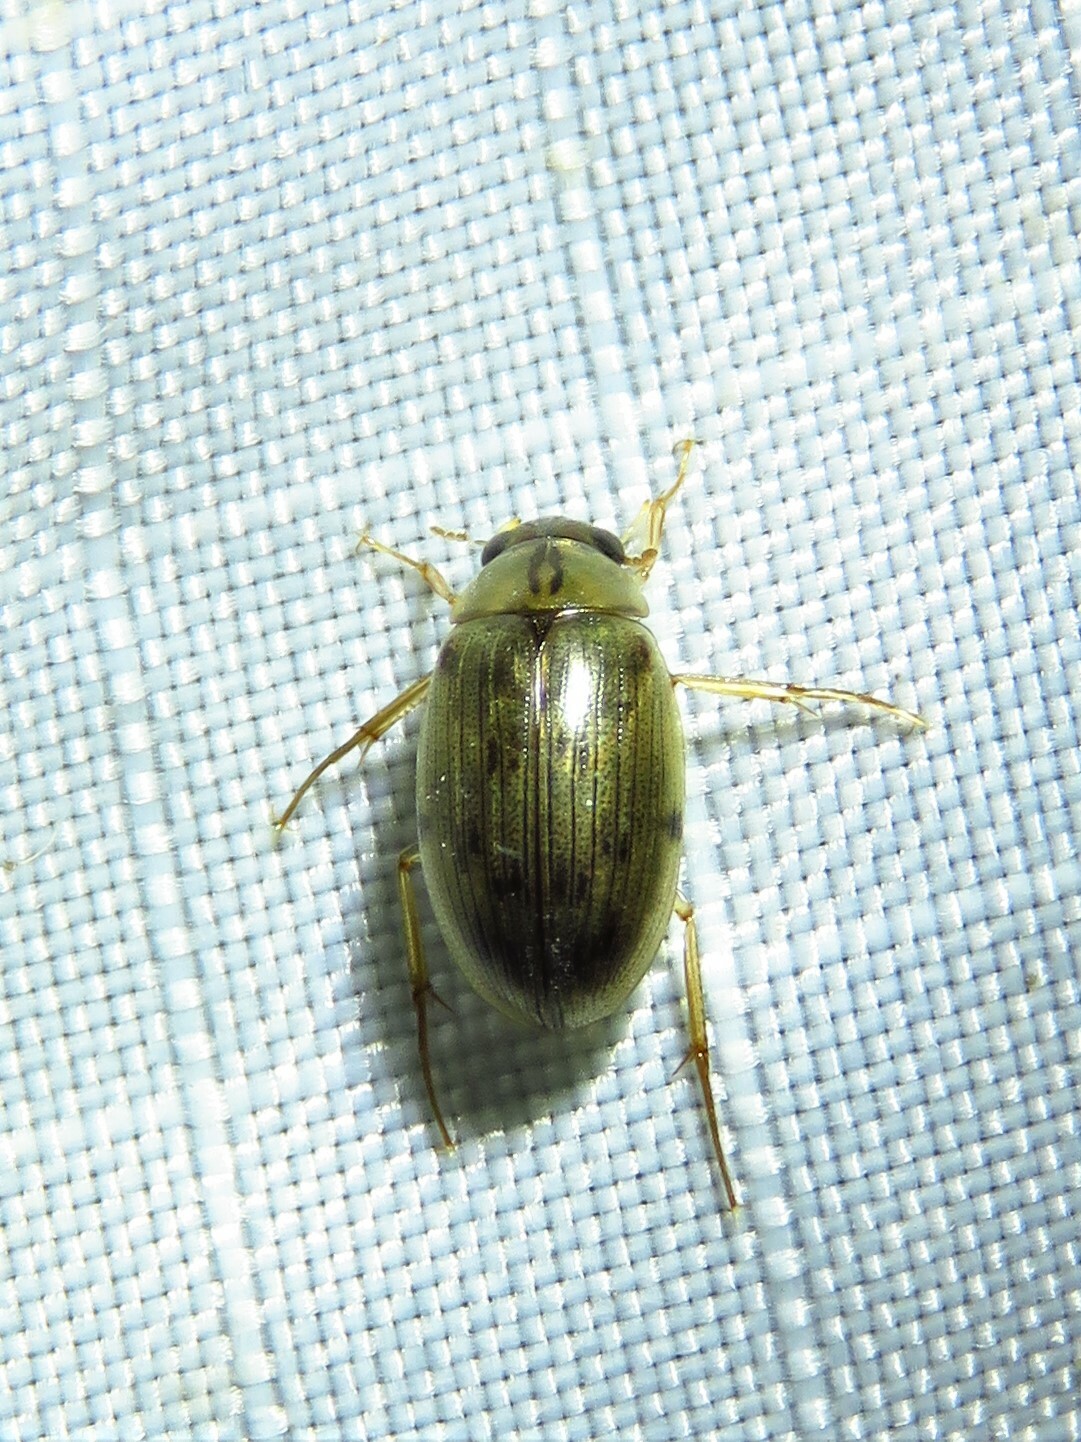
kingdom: Animalia
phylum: Arthropoda
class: Insecta
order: Coleoptera
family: Hydrophilidae
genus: Berosus
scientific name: Berosus
